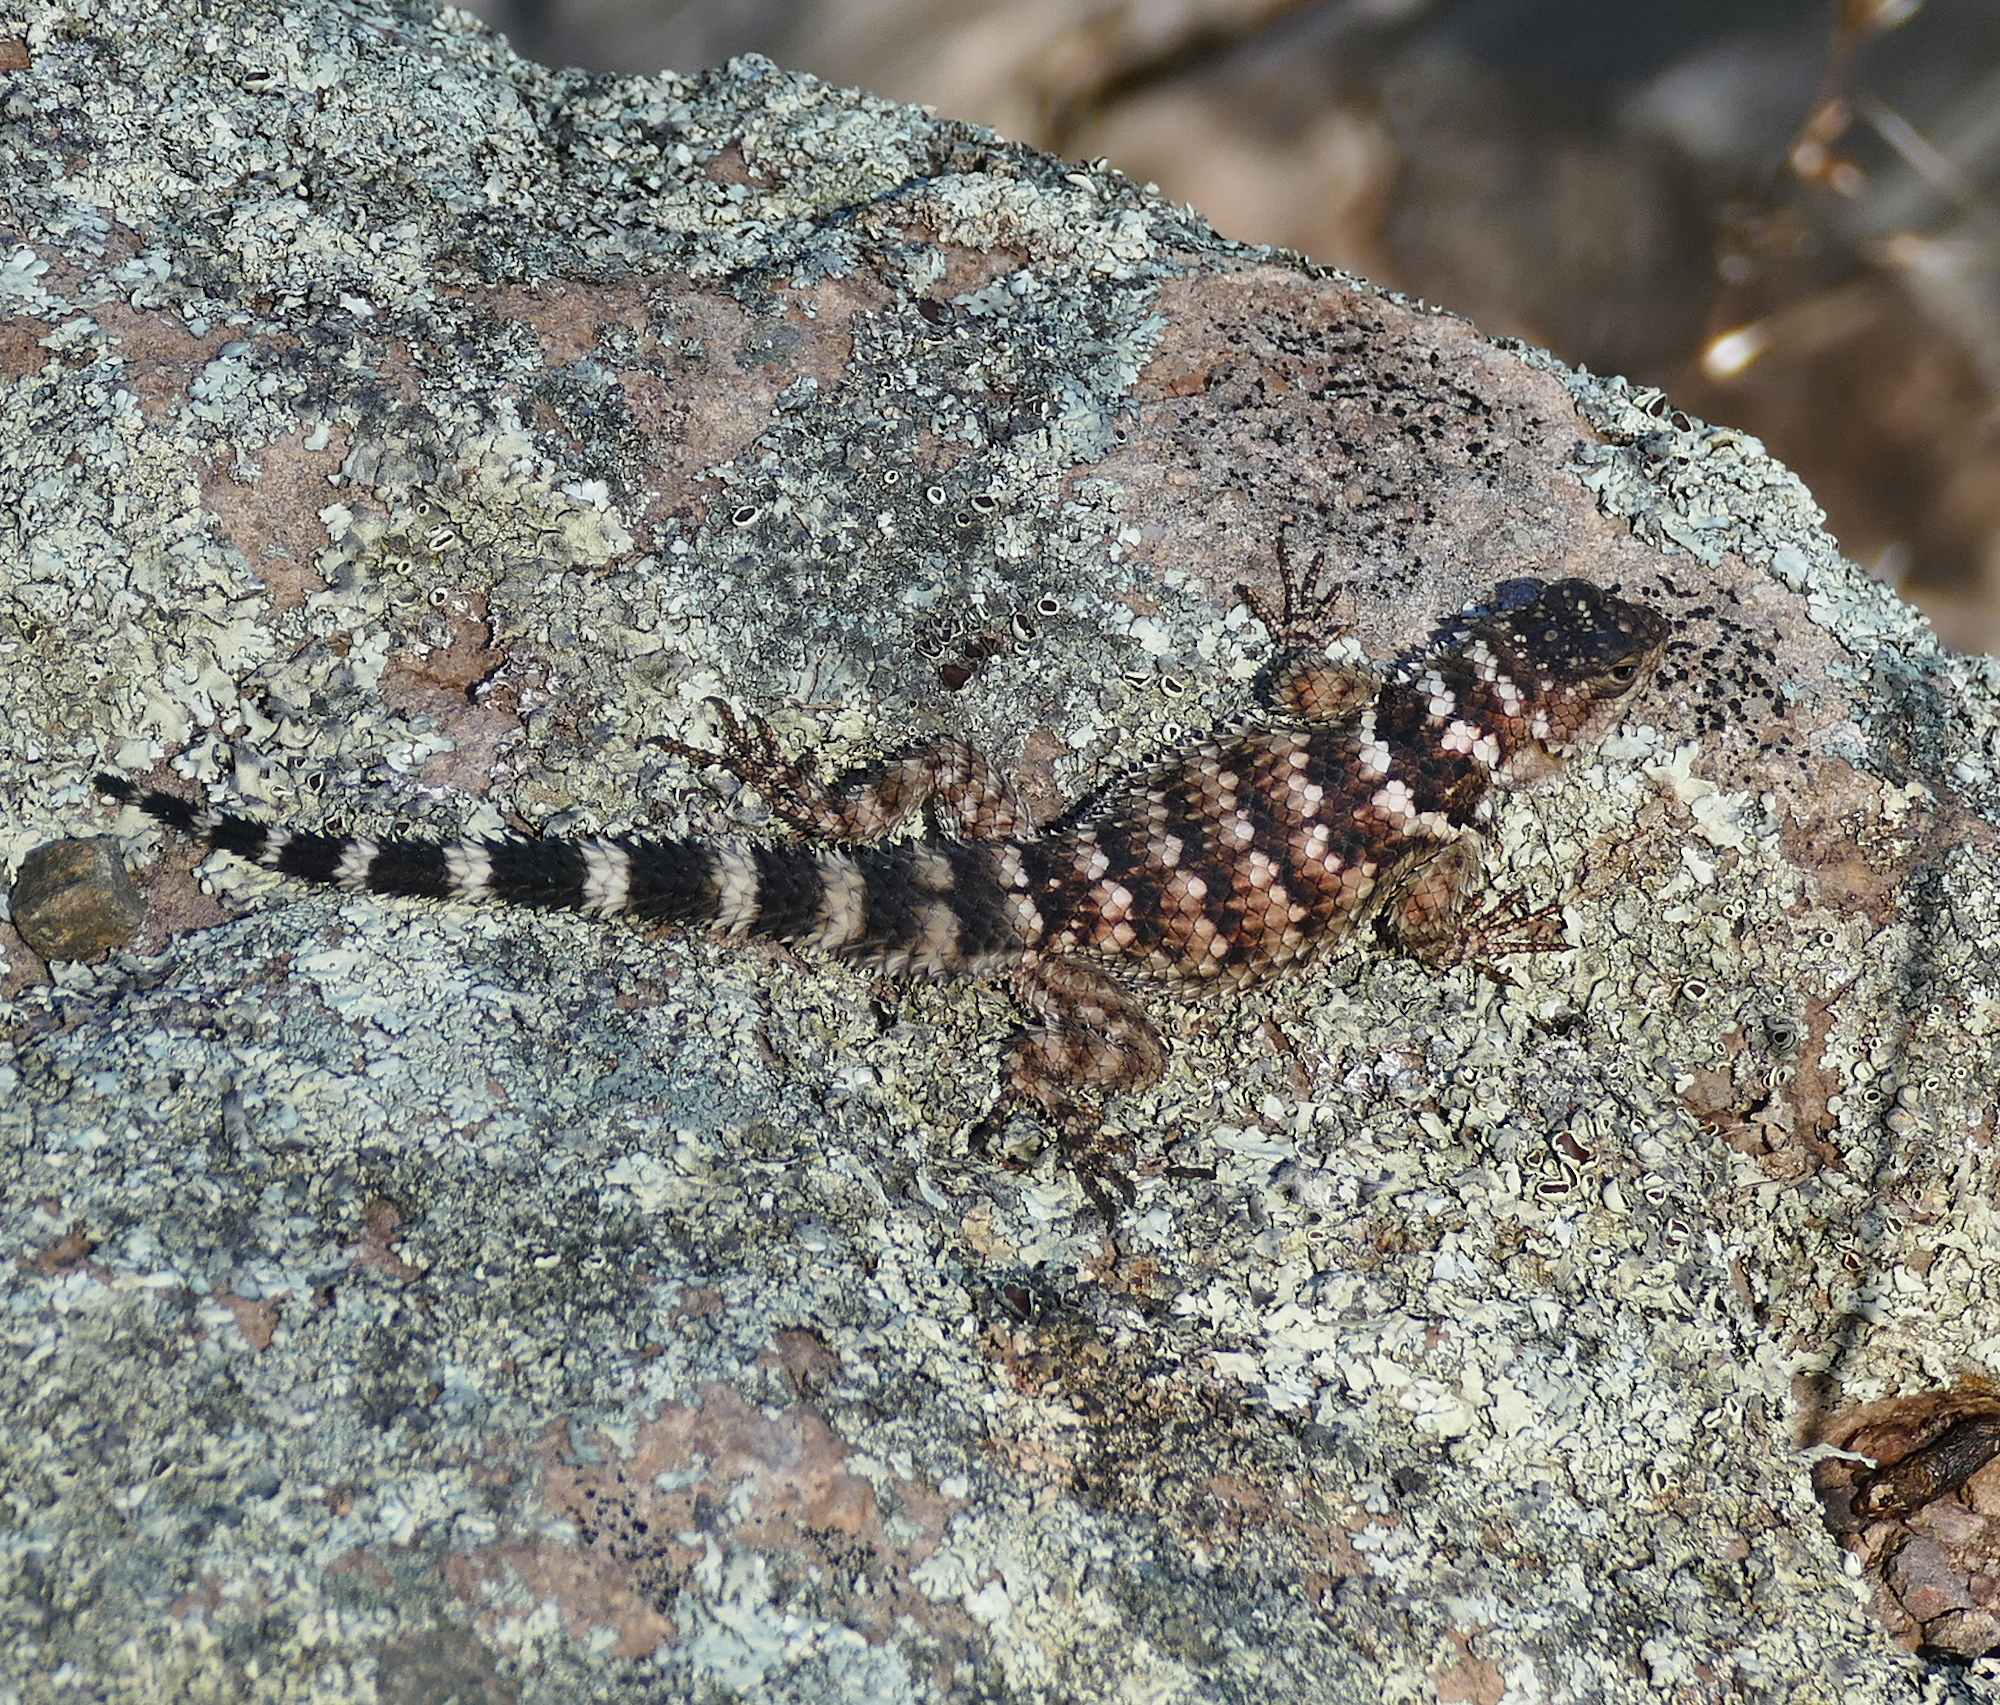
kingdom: Animalia
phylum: Chordata
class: Squamata
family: Phrynosomatidae
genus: Sceloporus
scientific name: Sceloporus poinsettii
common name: Crevice spiny lizard
